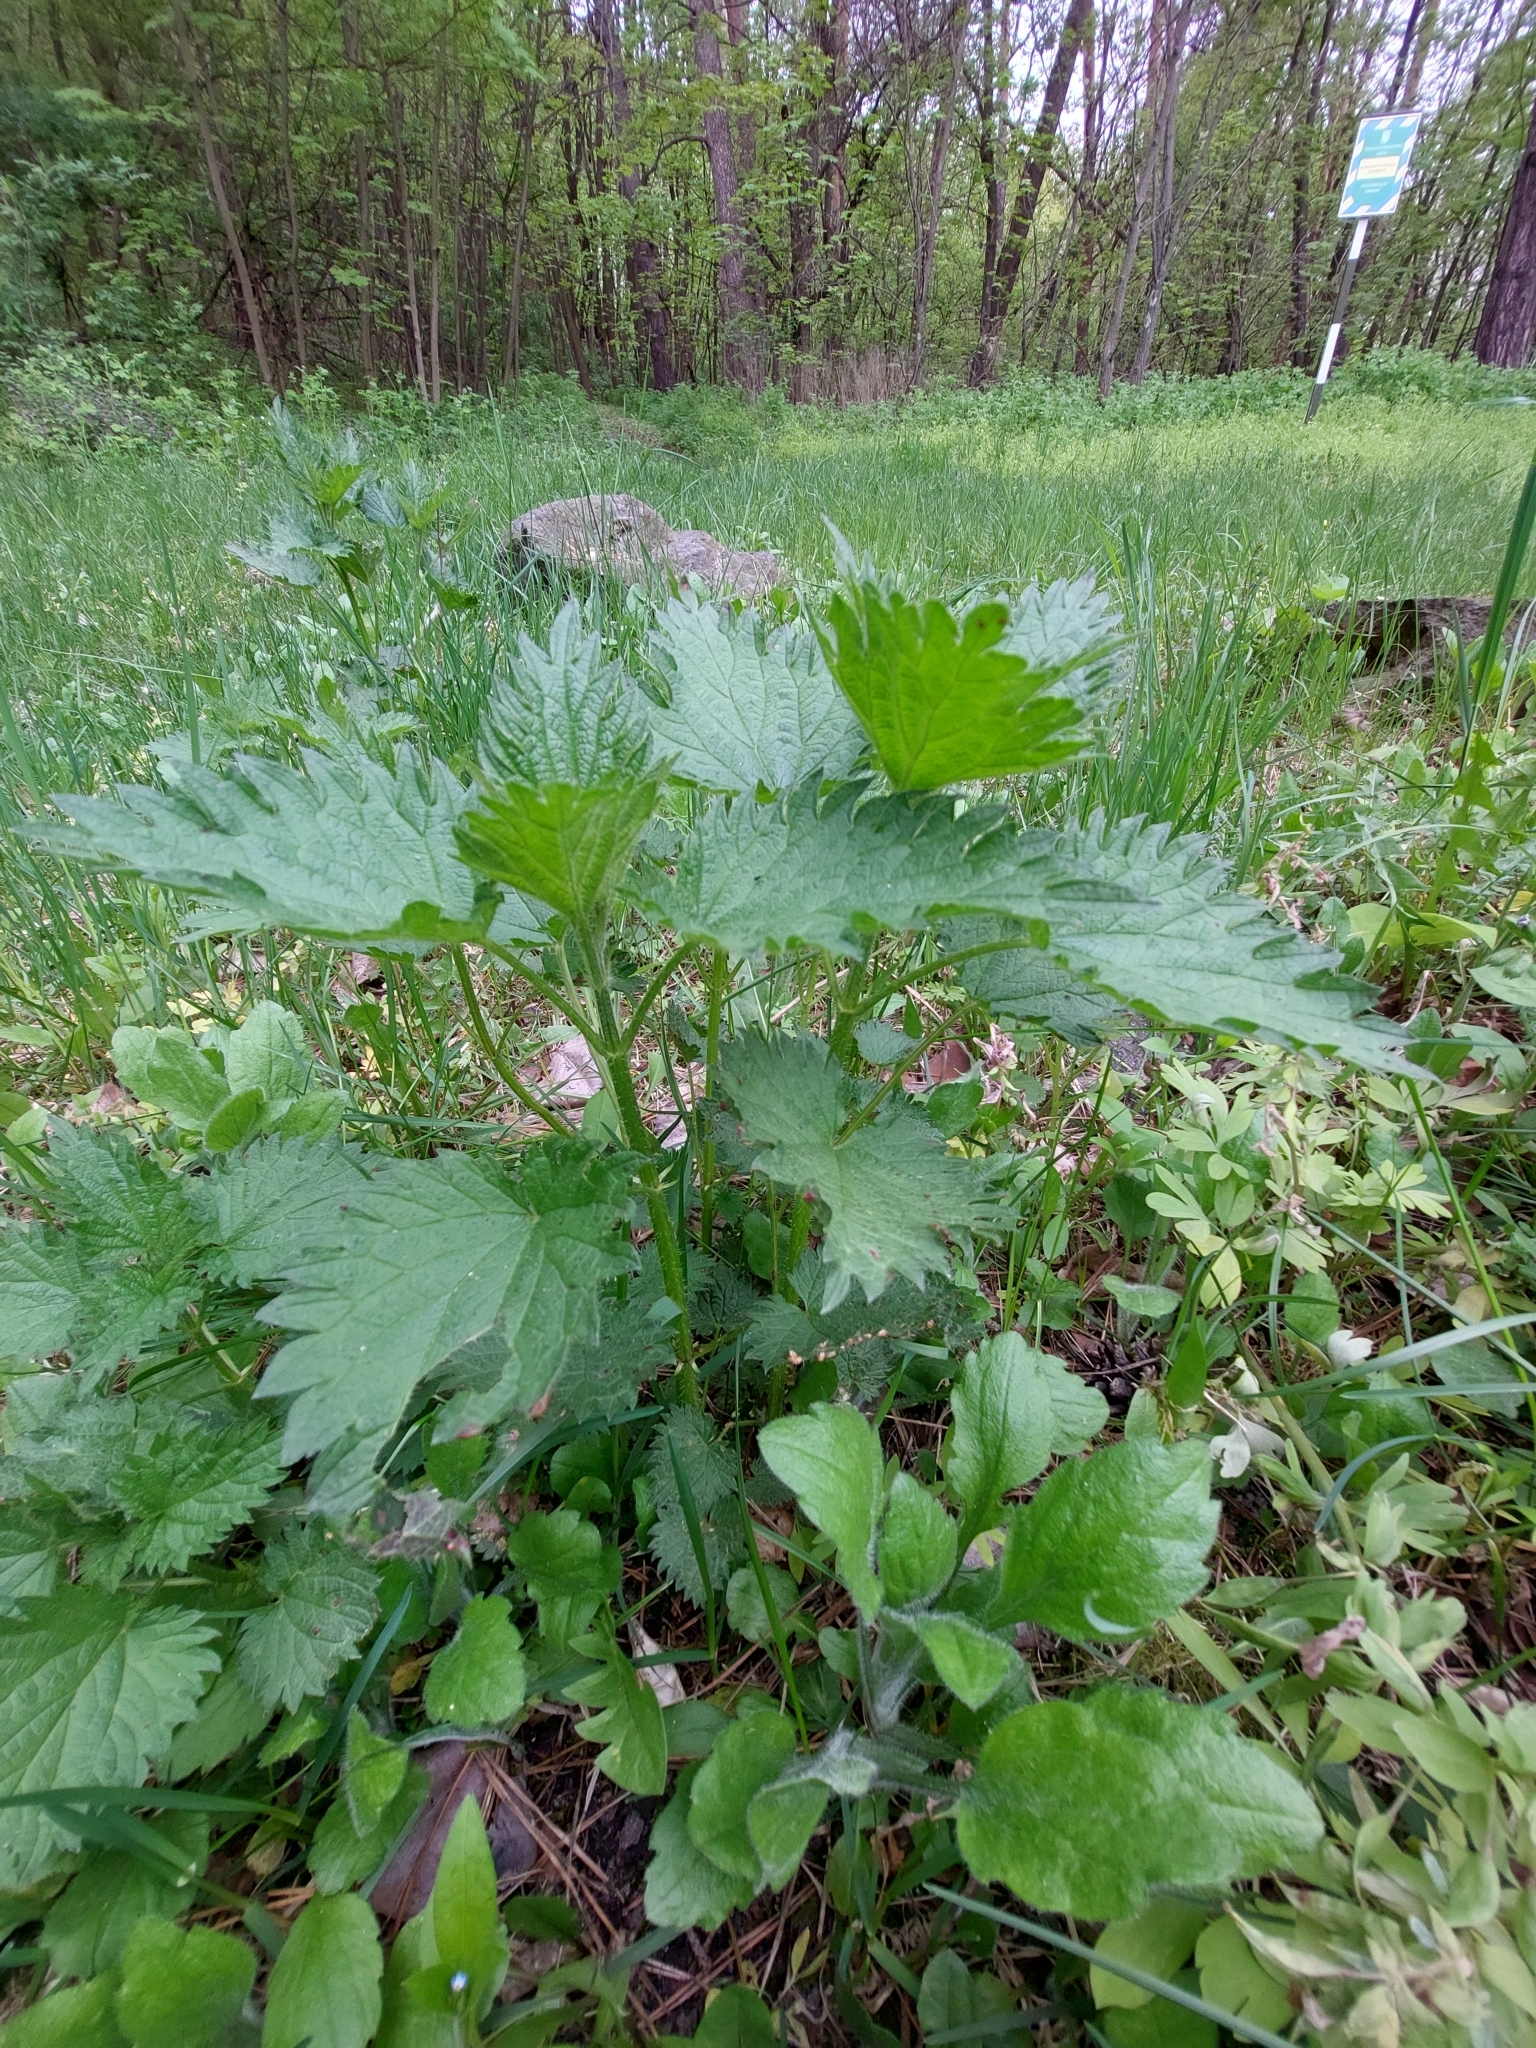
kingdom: Plantae
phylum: Tracheophyta
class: Magnoliopsida
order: Rosales
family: Urticaceae
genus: Urtica
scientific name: Urtica dioica
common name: Common nettle
